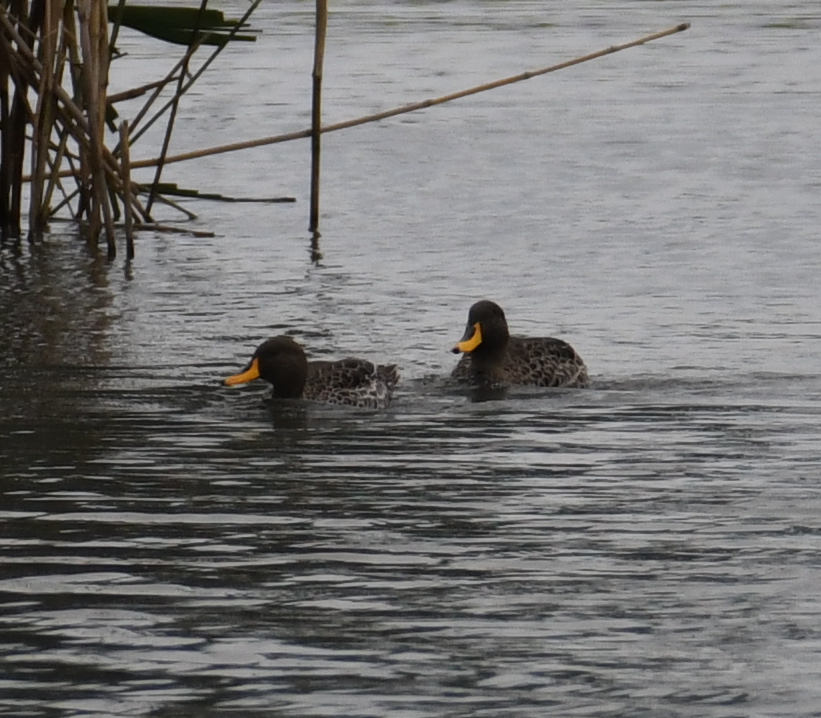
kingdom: Animalia
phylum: Chordata
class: Aves
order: Anseriformes
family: Anatidae
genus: Anas
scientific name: Anas undulata
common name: Yellow-billed duck
